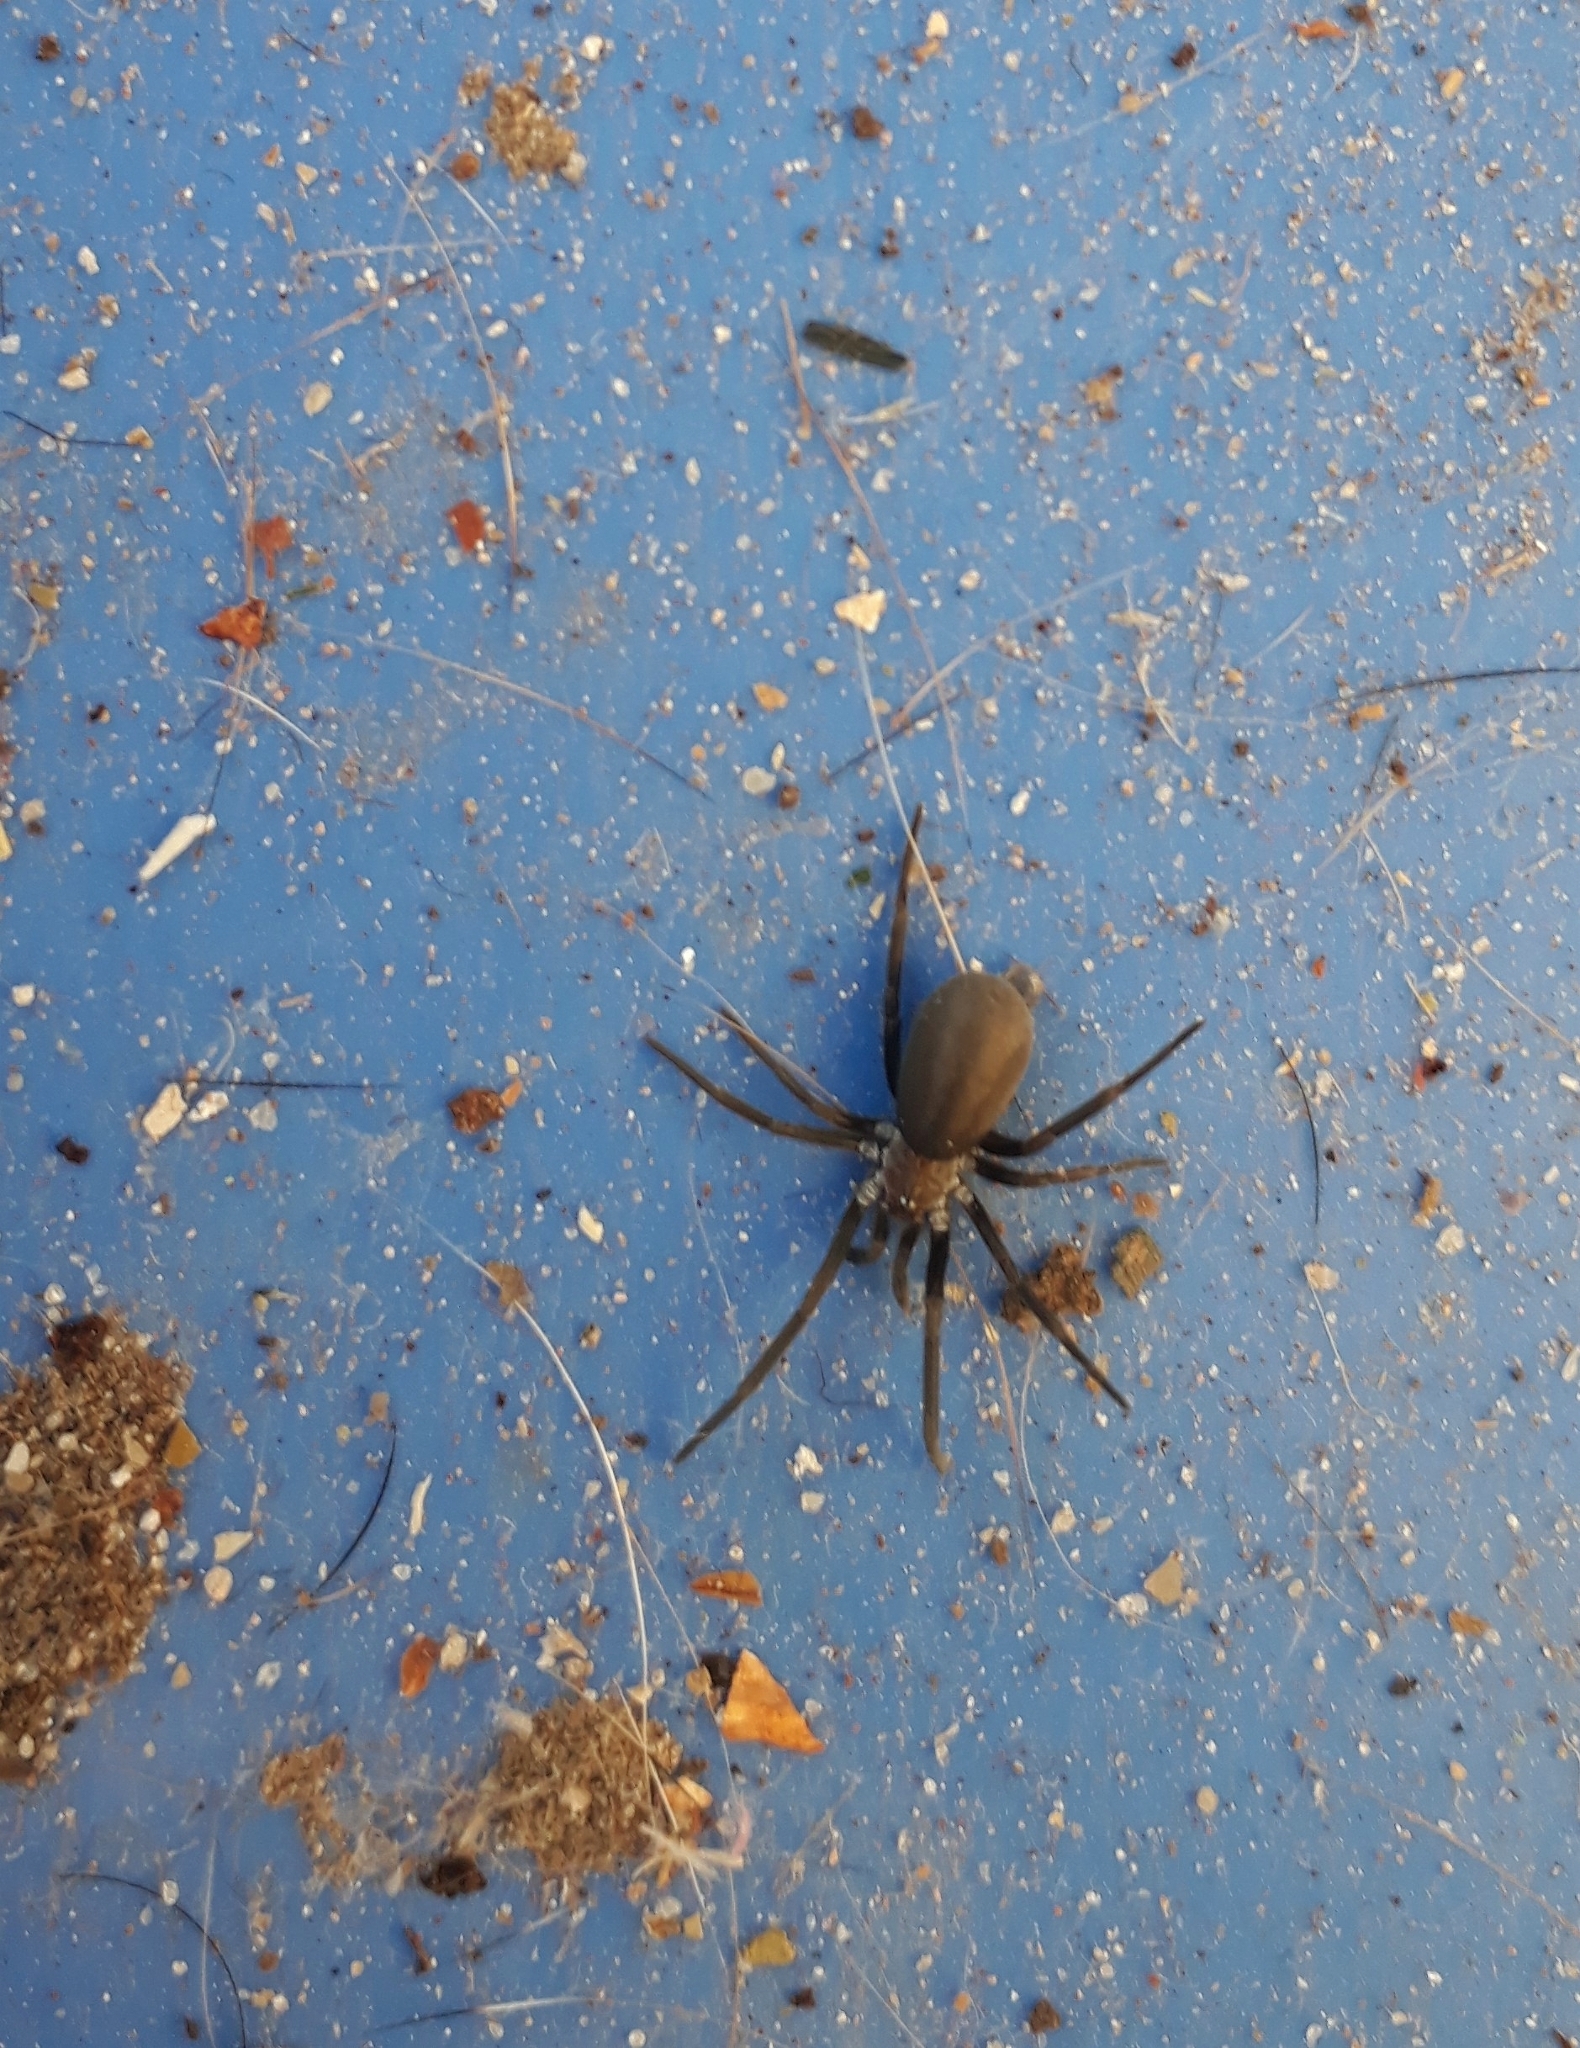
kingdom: Animalia
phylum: Arthropoda
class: Arachnida
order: Araneae
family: Filistatidae
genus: Kukulcania
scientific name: Kukulcania hibernalis
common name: Crevice weaver
